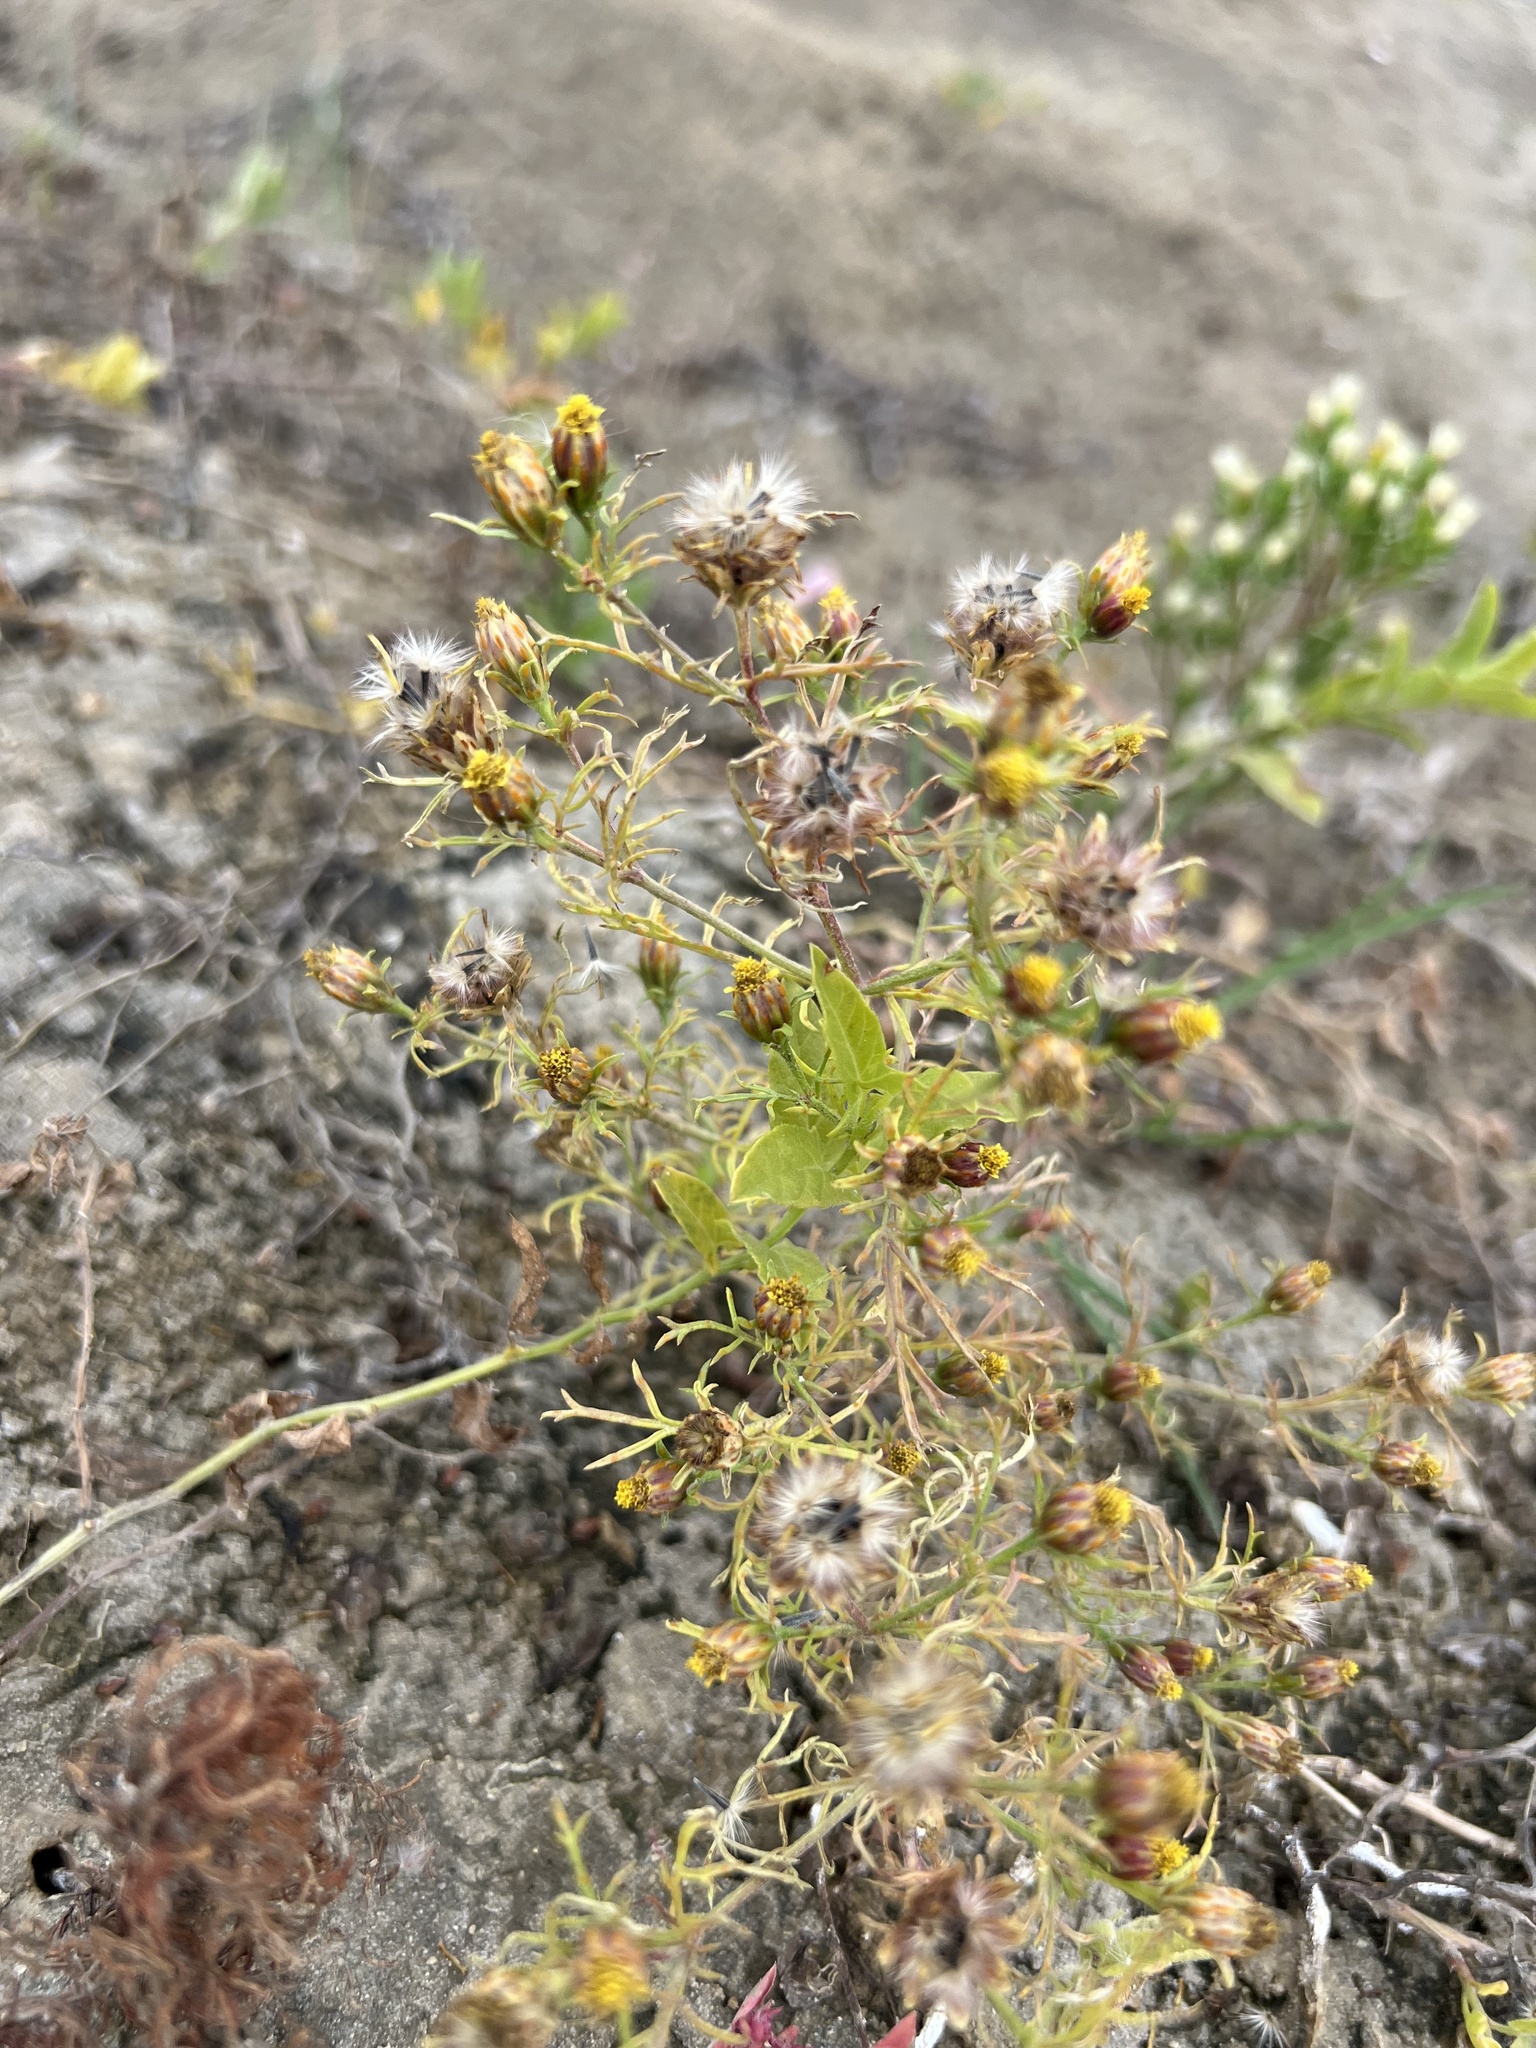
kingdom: Plantae
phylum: Tracheophyta
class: Magnoliopsida
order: Asterales
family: Asteraceae
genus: Dyssodia
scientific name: Dyssodia papposa
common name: Dogweed
